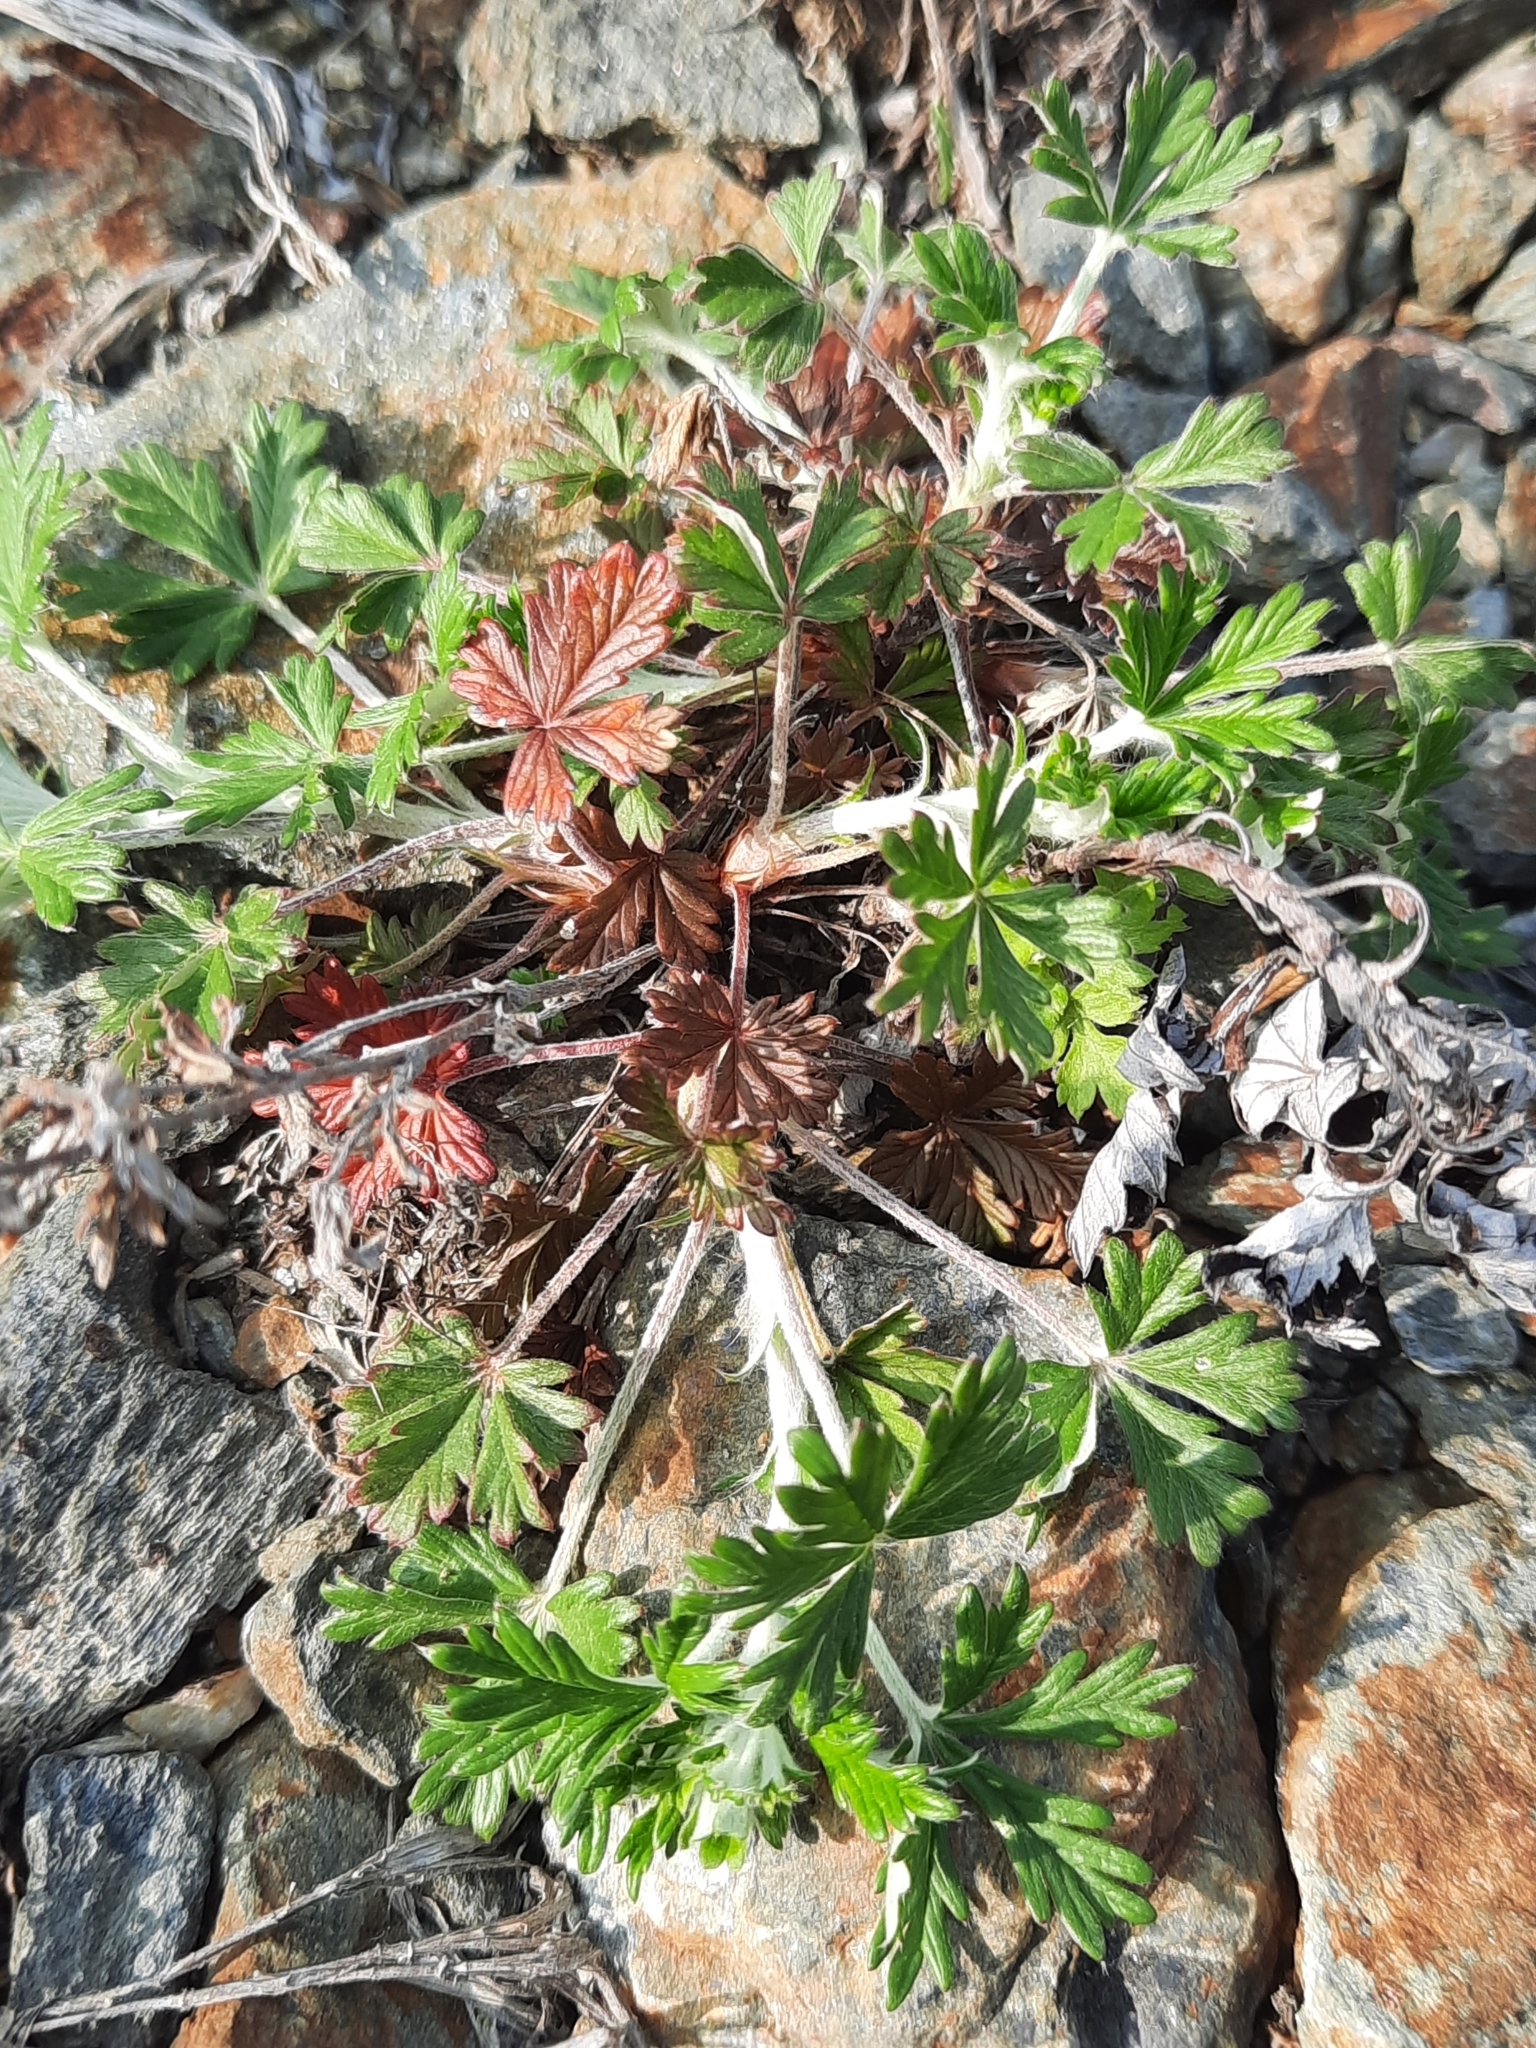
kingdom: Plantae
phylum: Tracheophyta
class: Magnoliopsida
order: Rosales
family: Rosaceae
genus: Potentilla
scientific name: Potentilla argentea
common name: Hoary cinquefoil
